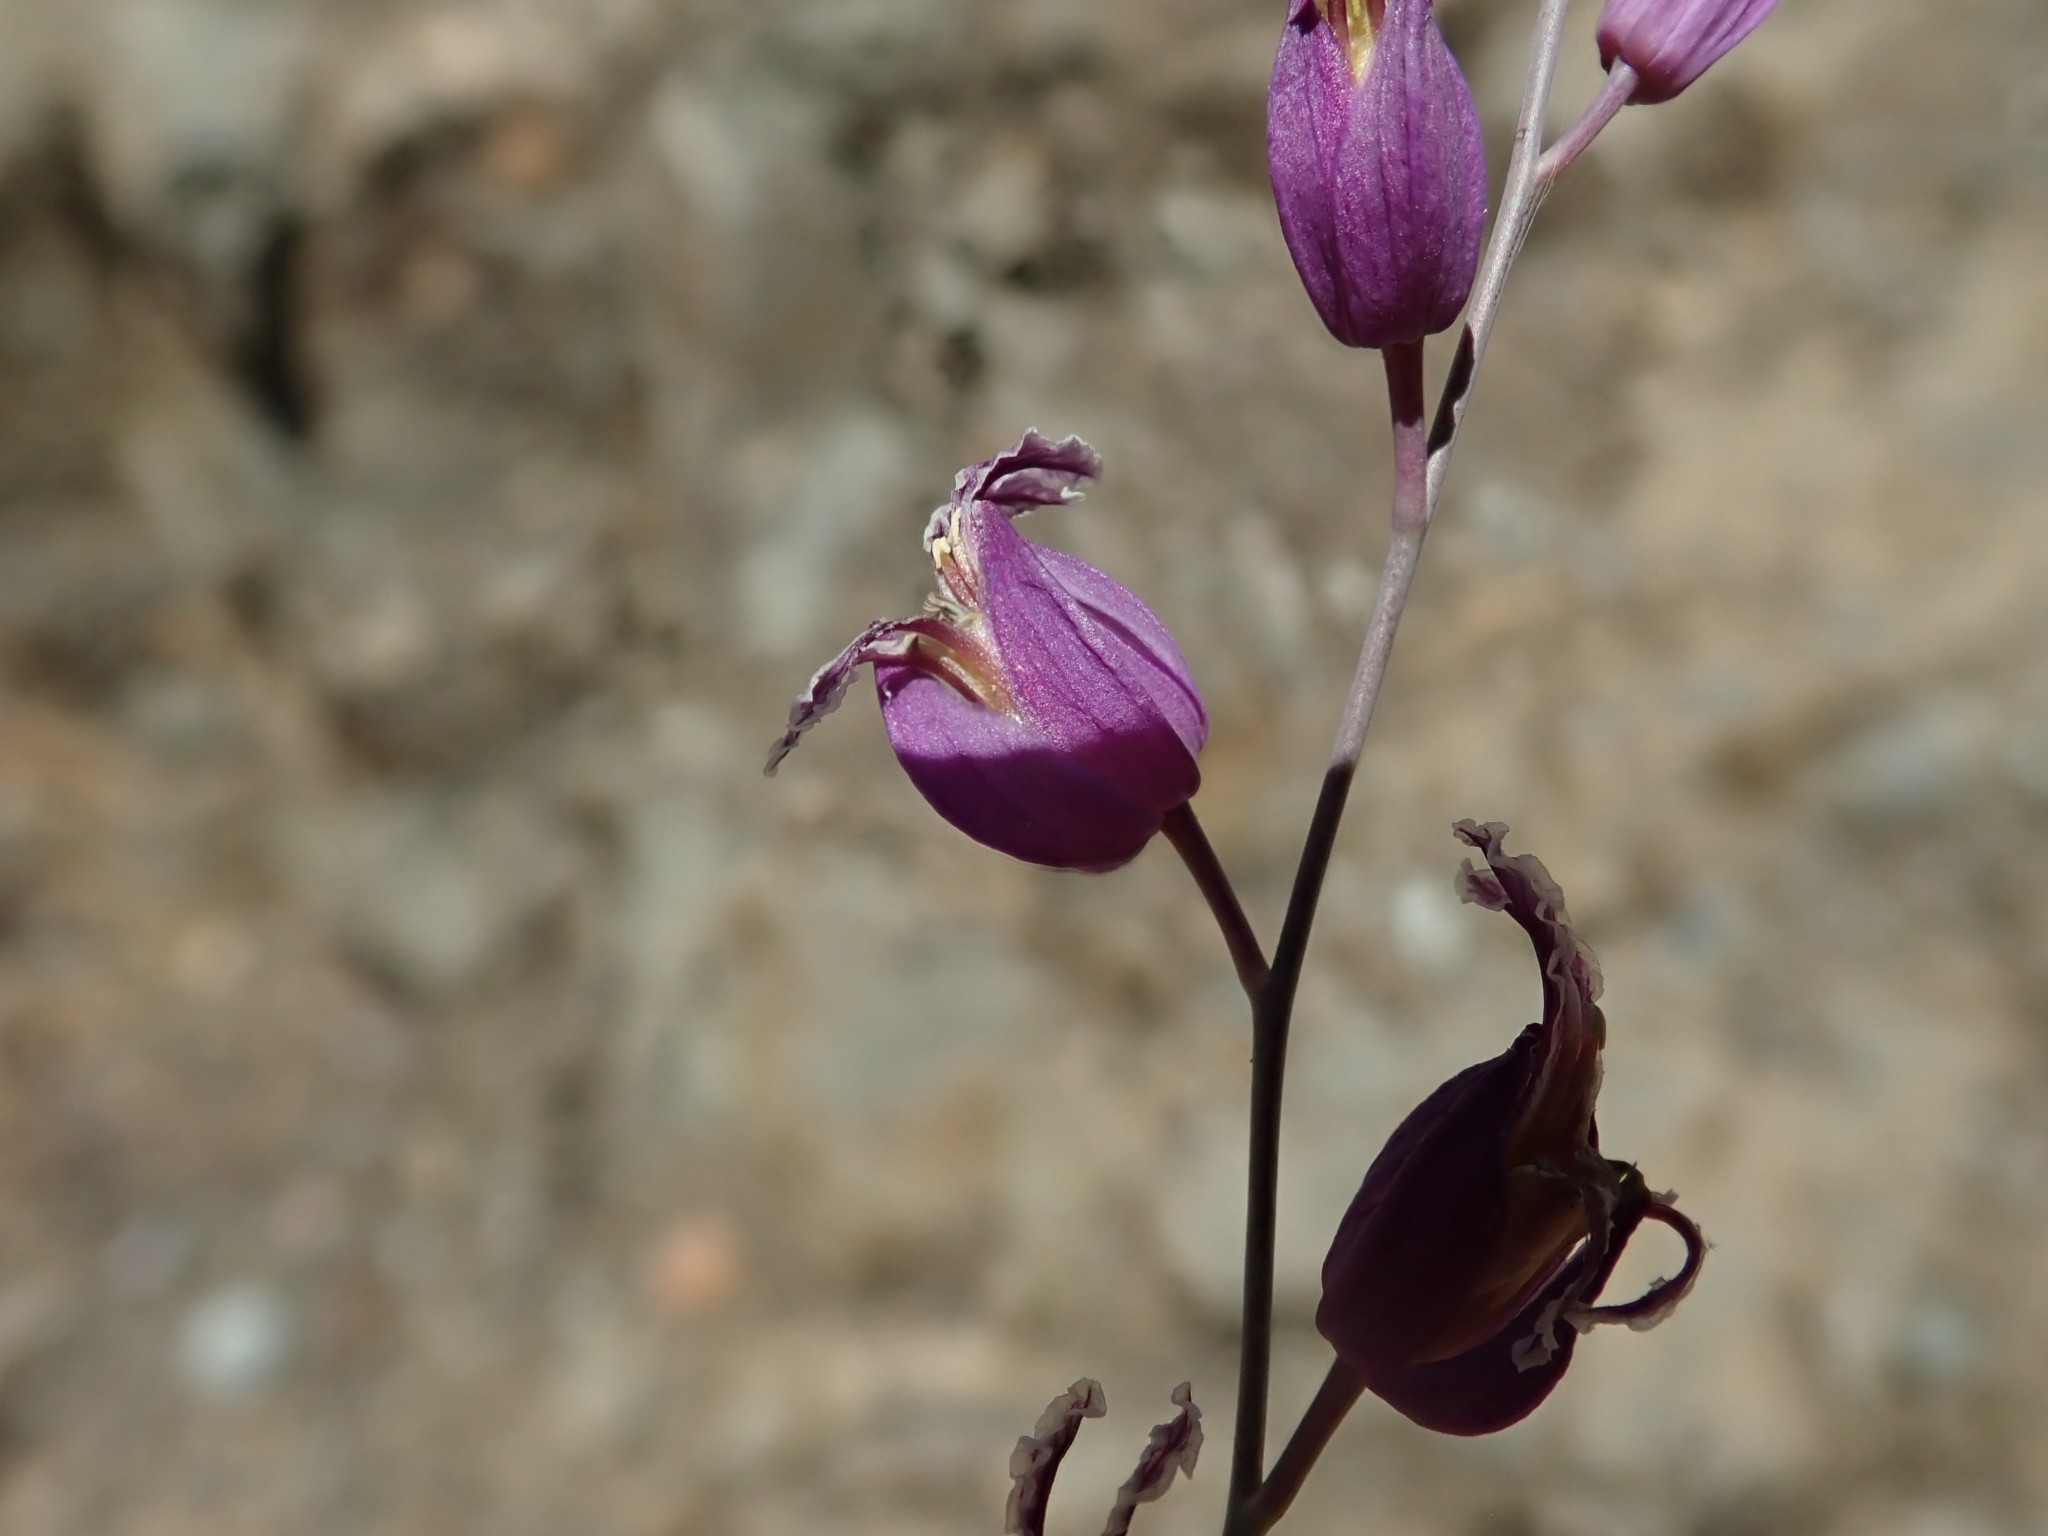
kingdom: Plantae
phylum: Tracheophyta
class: Magnoliopsida
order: Brassicales
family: Brassicaceae
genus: Streptanthus
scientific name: Streptanthus glandulosus
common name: Jewel-flower
